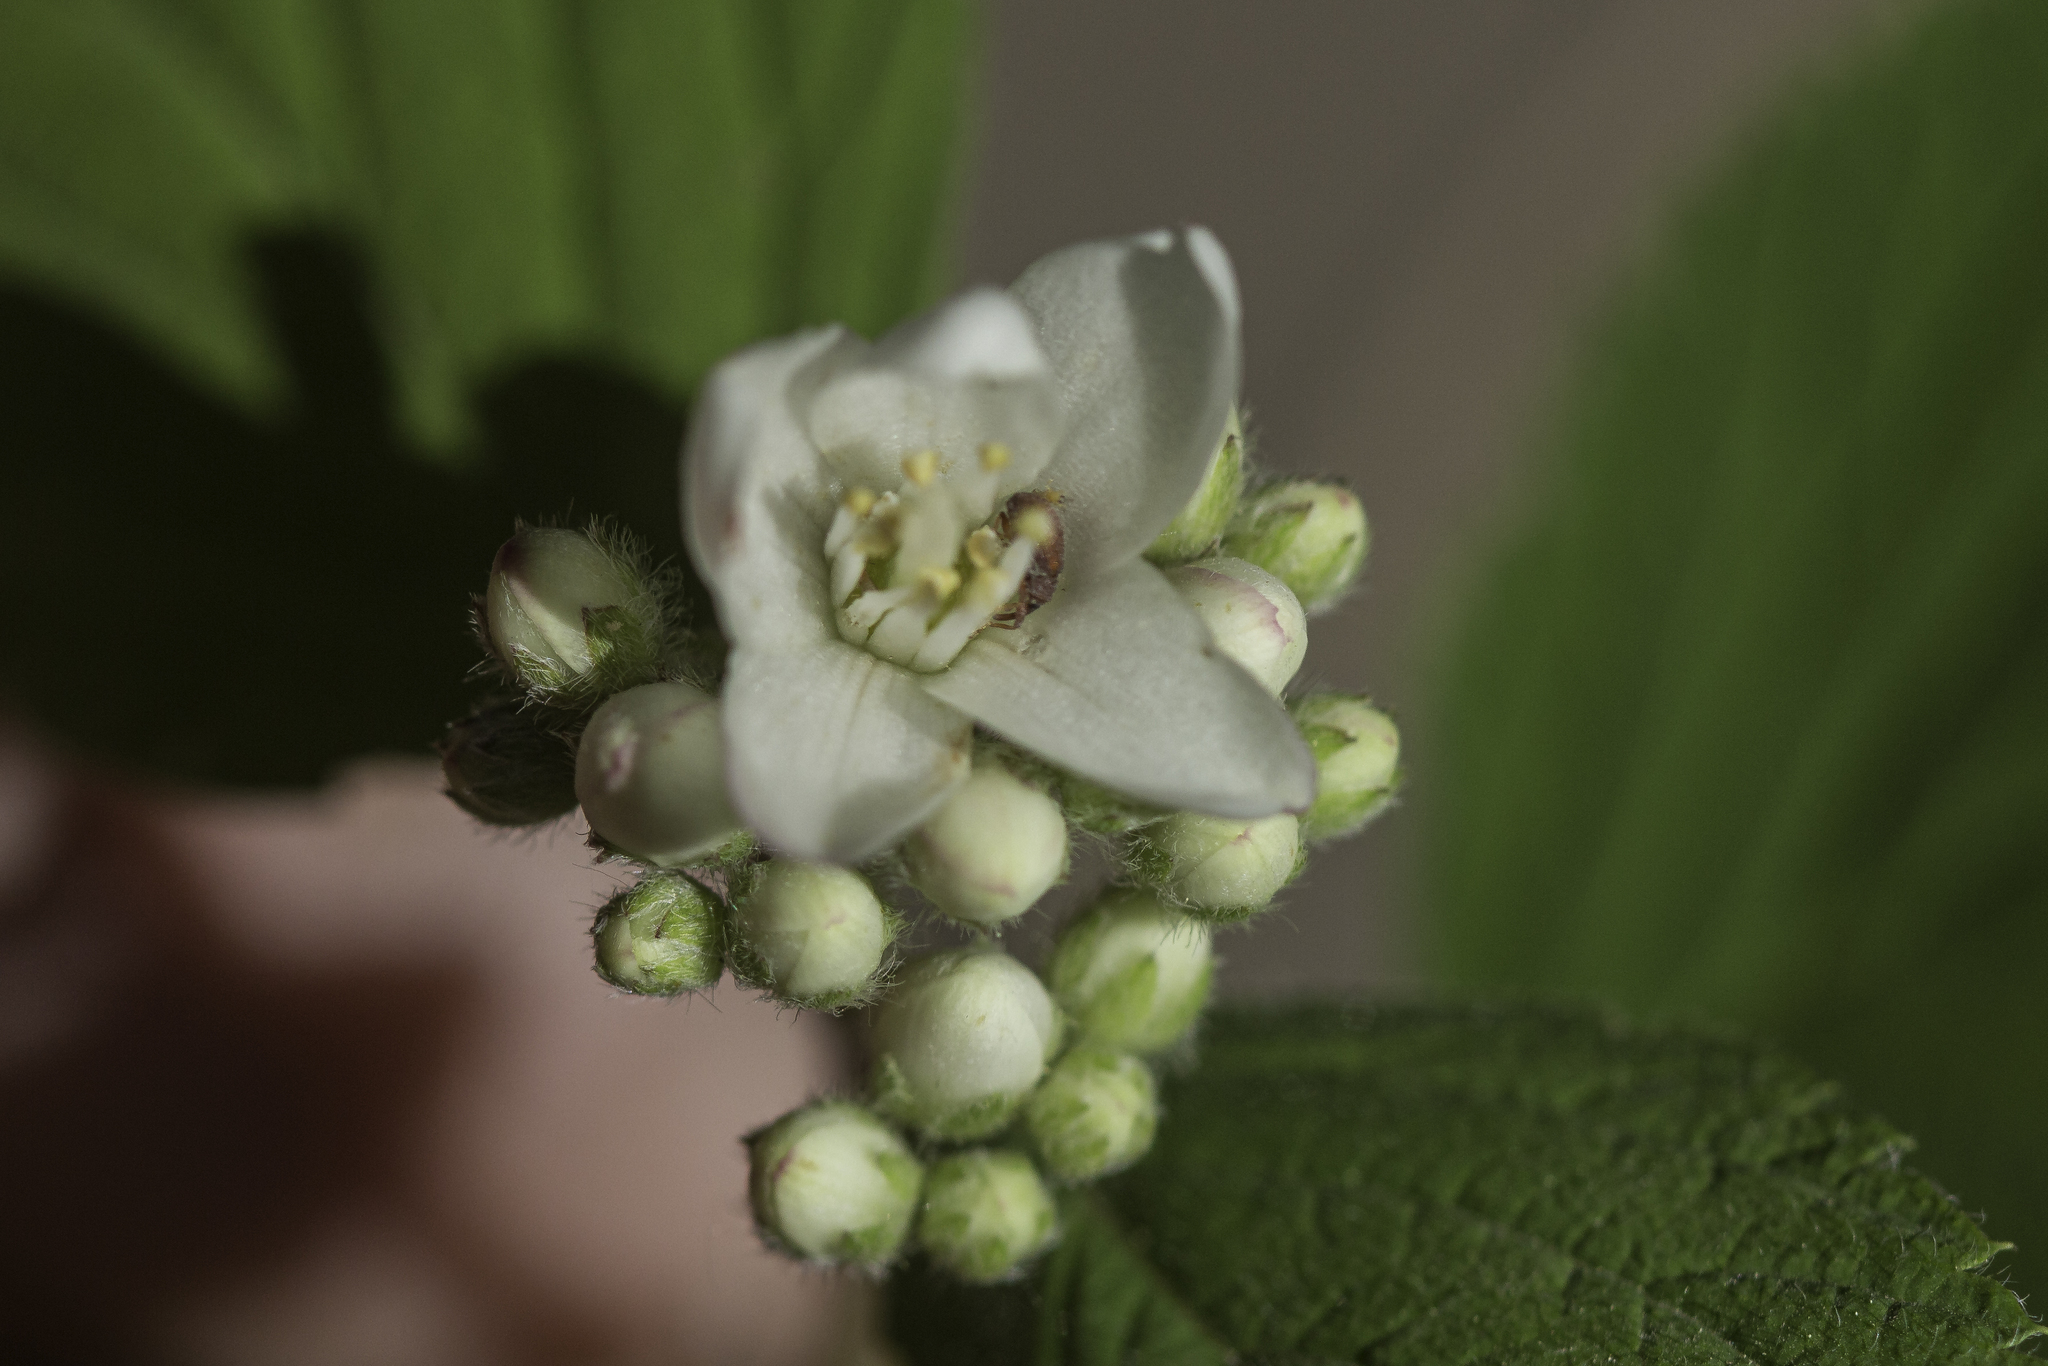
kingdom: Plantae
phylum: Tracheophyta
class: Magnoliopsida
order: Cornales
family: Hydrangeaceae
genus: Jamesia
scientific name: Jamesia americana
